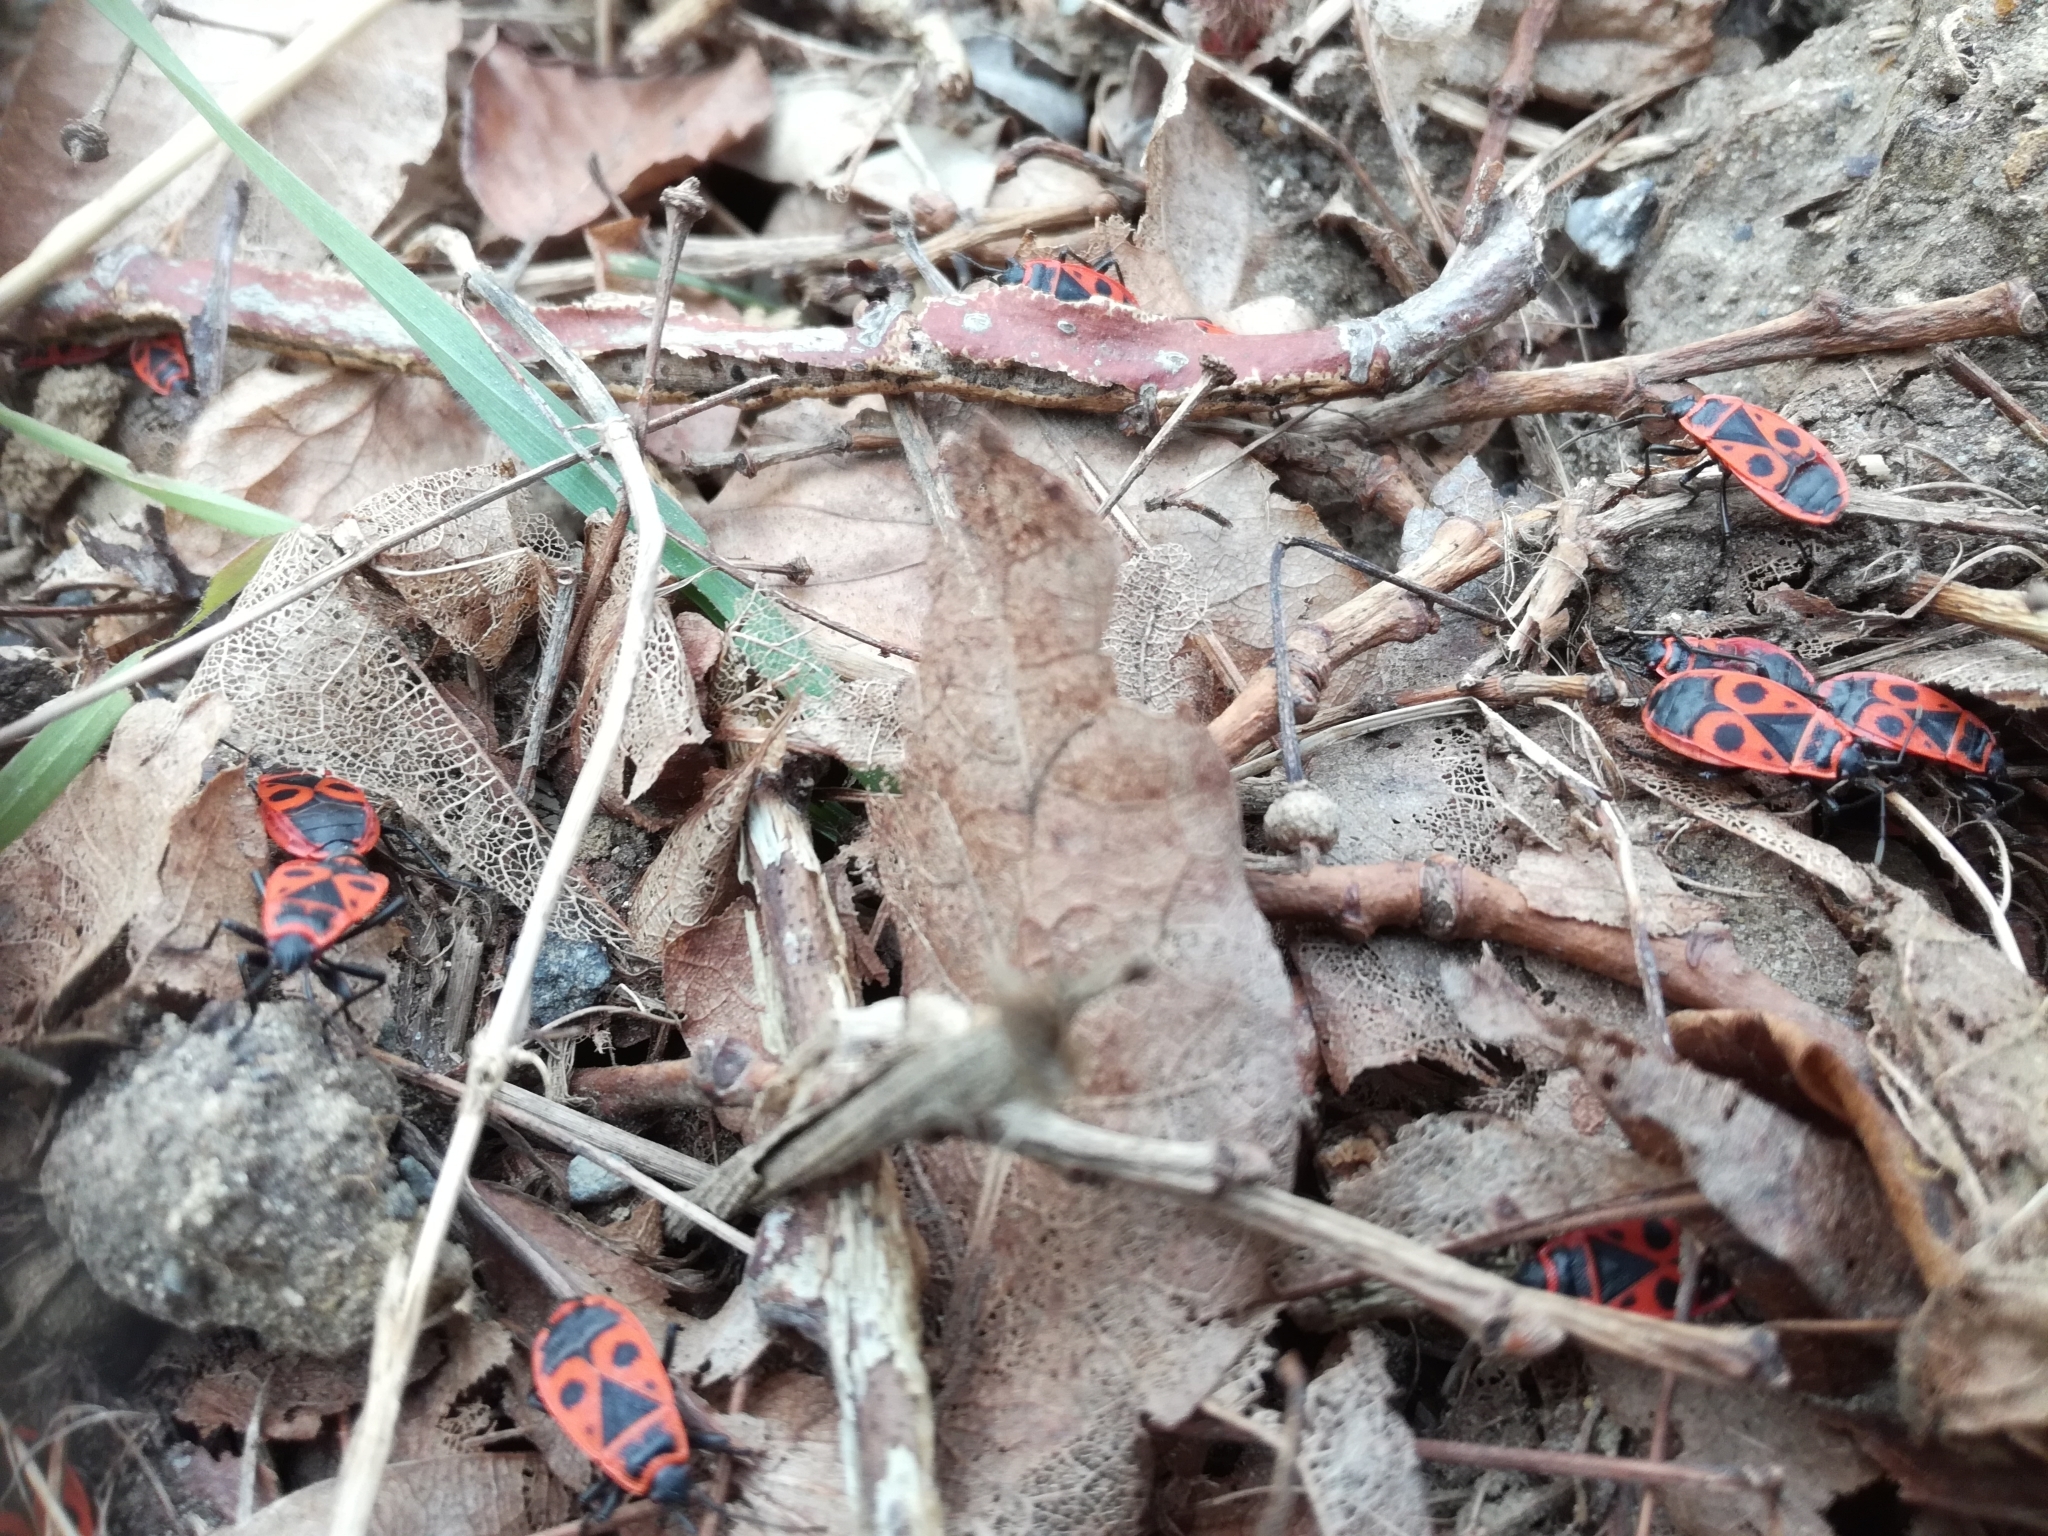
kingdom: Animalia
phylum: Arthropoda
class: Insecta
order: Hemiptera
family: Pyrrhocoridae
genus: Pyrrhocoris
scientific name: Pyrrhocoris apterus
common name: Firebug
